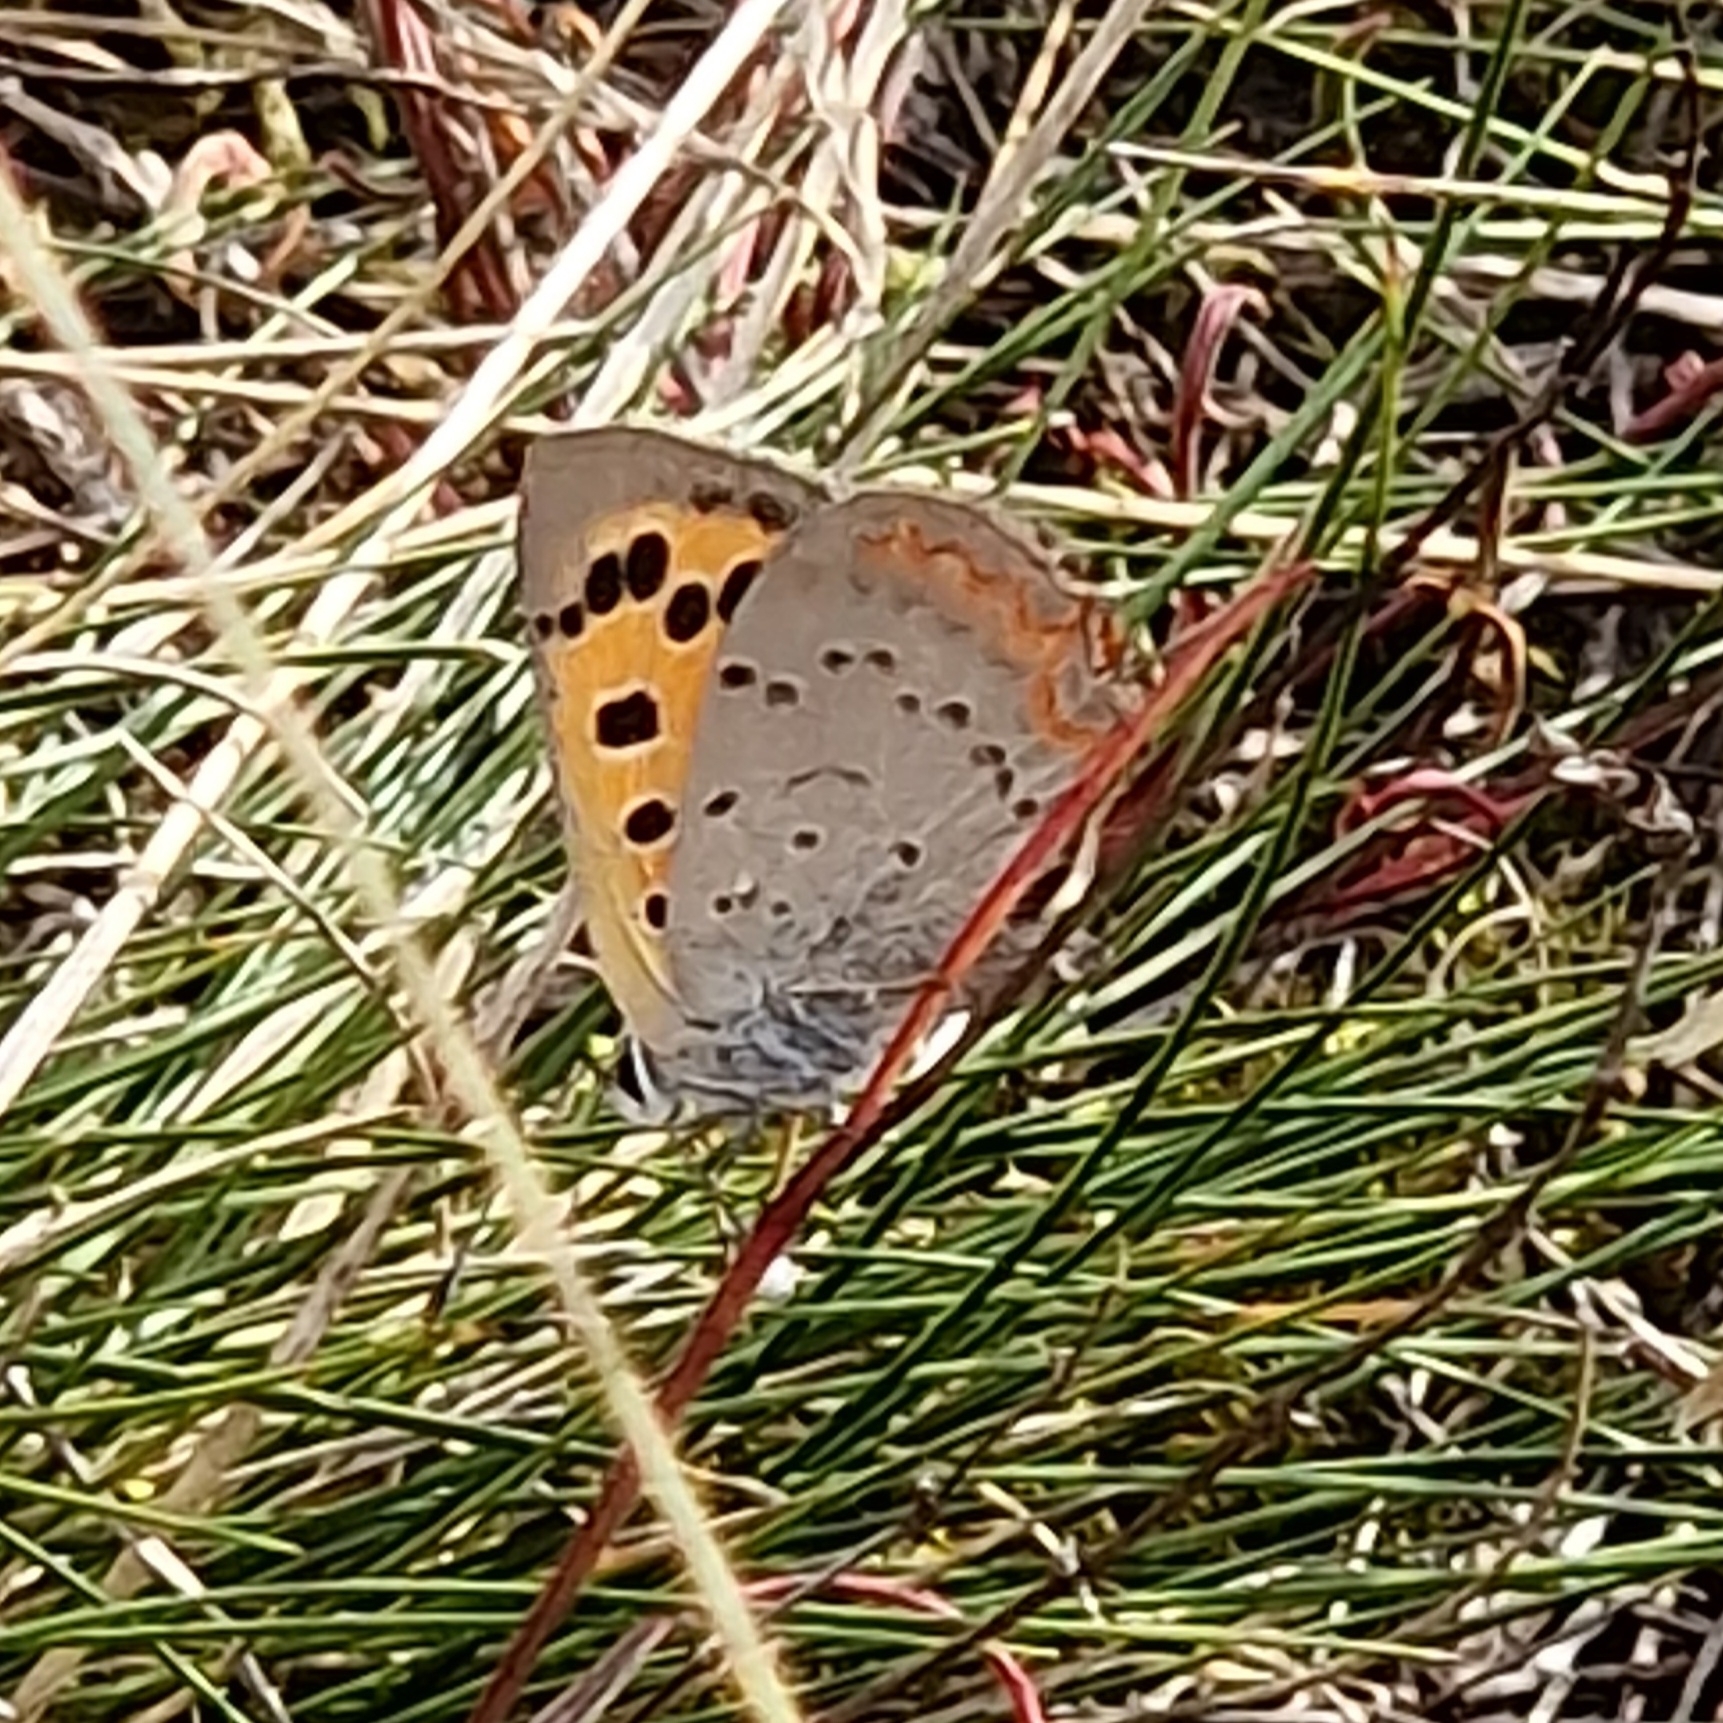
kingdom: Animalia
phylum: Arthropoda
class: Insecta
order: Lepidoptera
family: Lycaenidae
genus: Lycaena
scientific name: Lycaena phlaeas
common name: Small copper
